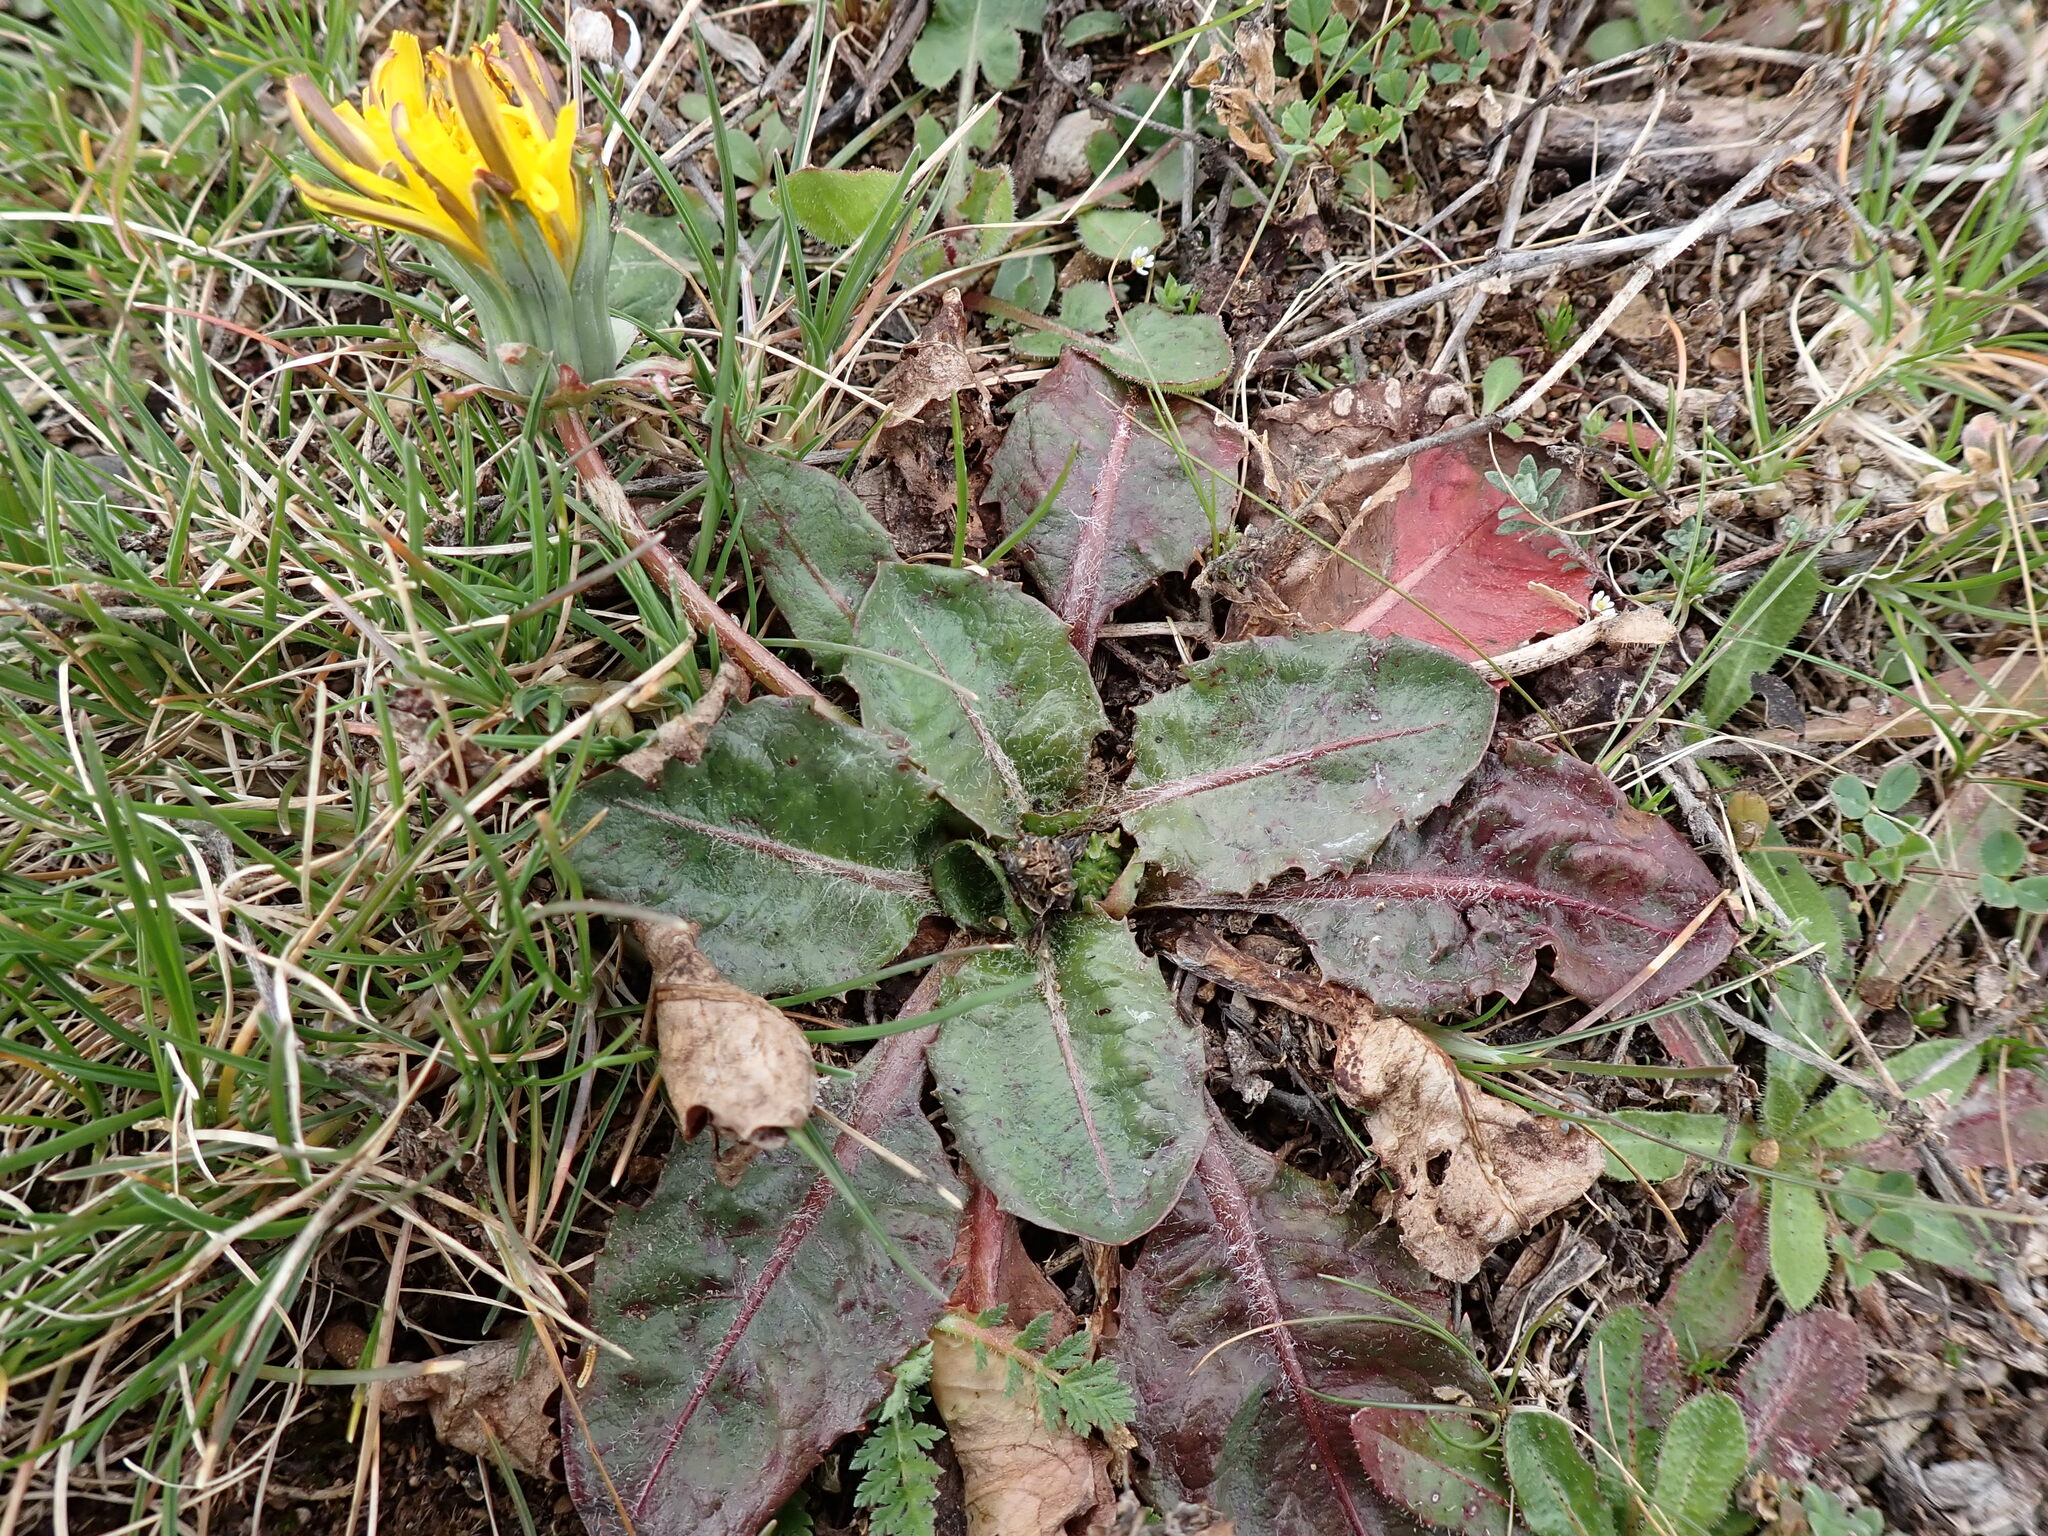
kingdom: Plantae
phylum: Tracheophyta
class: Magnoliopsida
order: Asterales
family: Asteraceae
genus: Taraxacum
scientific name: Taraxacum obovatum
